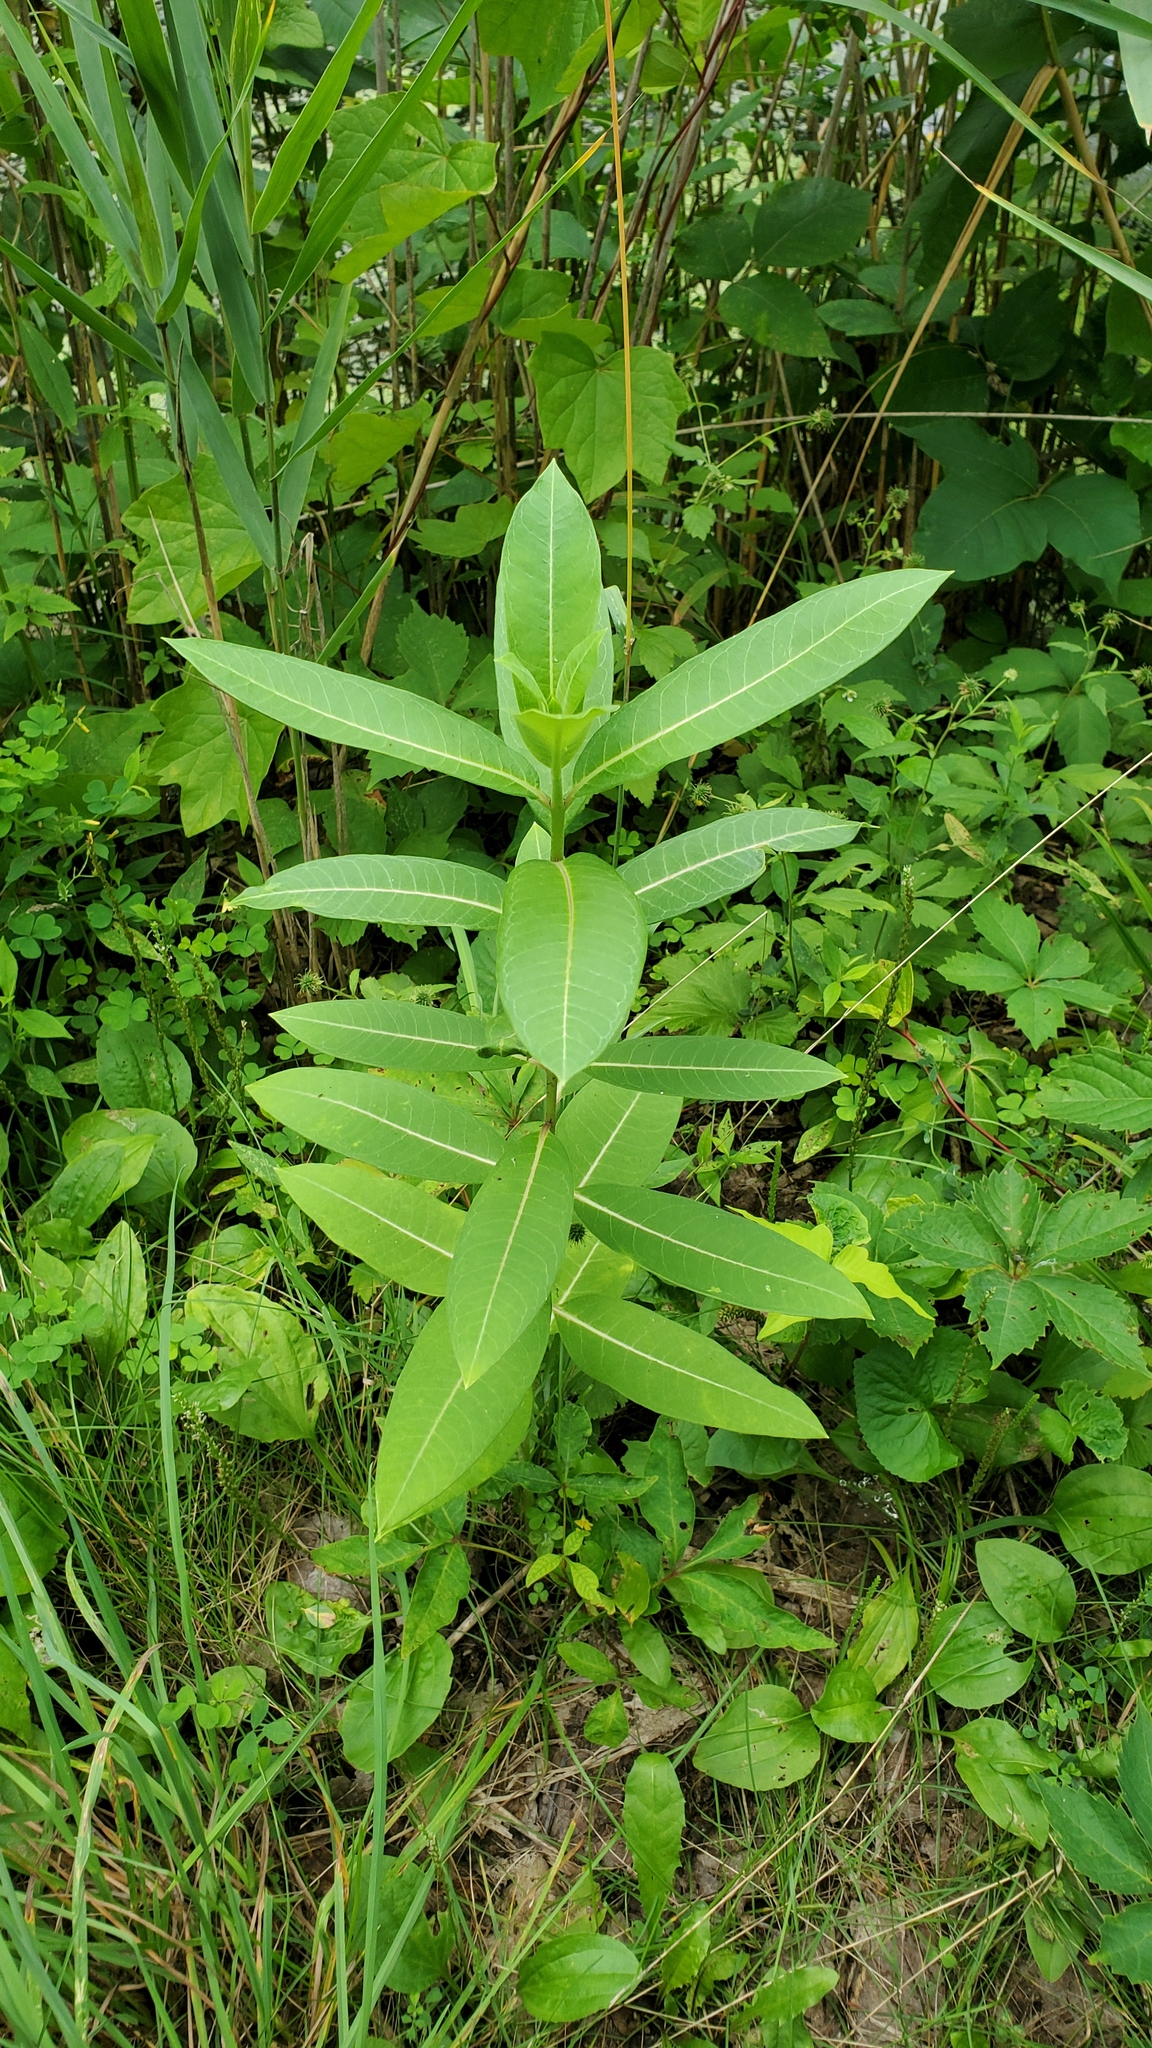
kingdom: Plantae
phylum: Tracheophyta
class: Magnoliopsida
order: Gentianales
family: Apocynaceae
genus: Asclepias
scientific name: Asclepias syriaca
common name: Common milkweed
